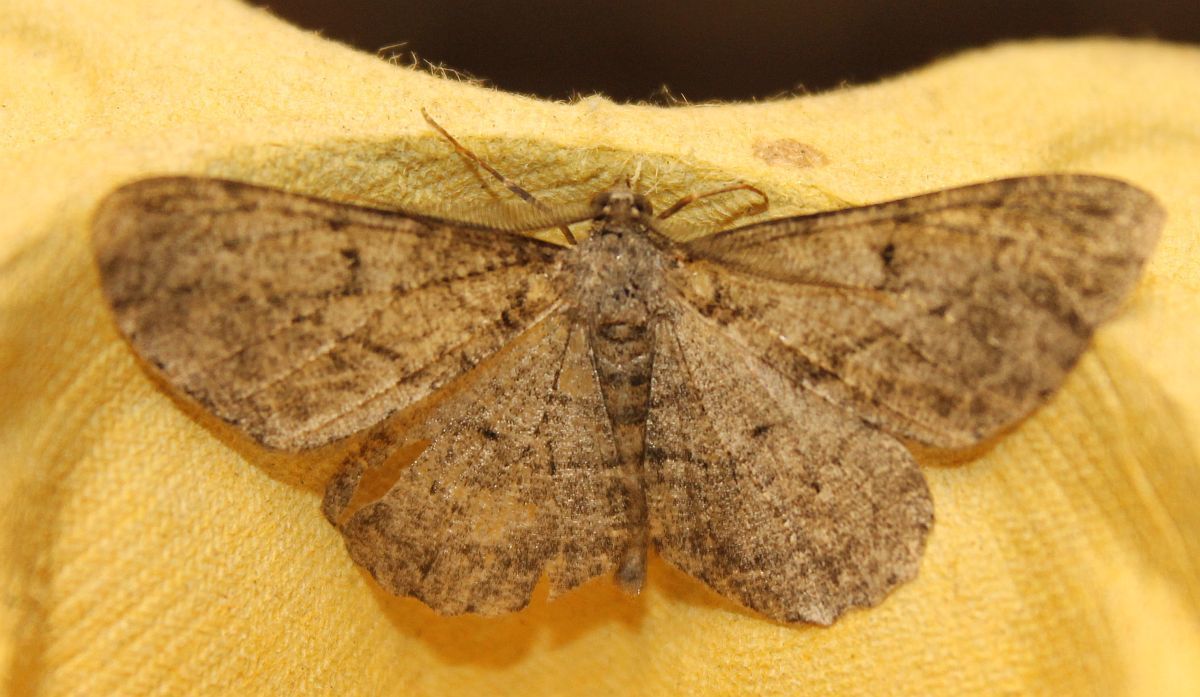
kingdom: Animalia
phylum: Arthropoda
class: Insecta
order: Lepidoptera
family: Geometridae
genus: Peribatodes
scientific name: Peribatodes rhomboidaria
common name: Willow beauty
